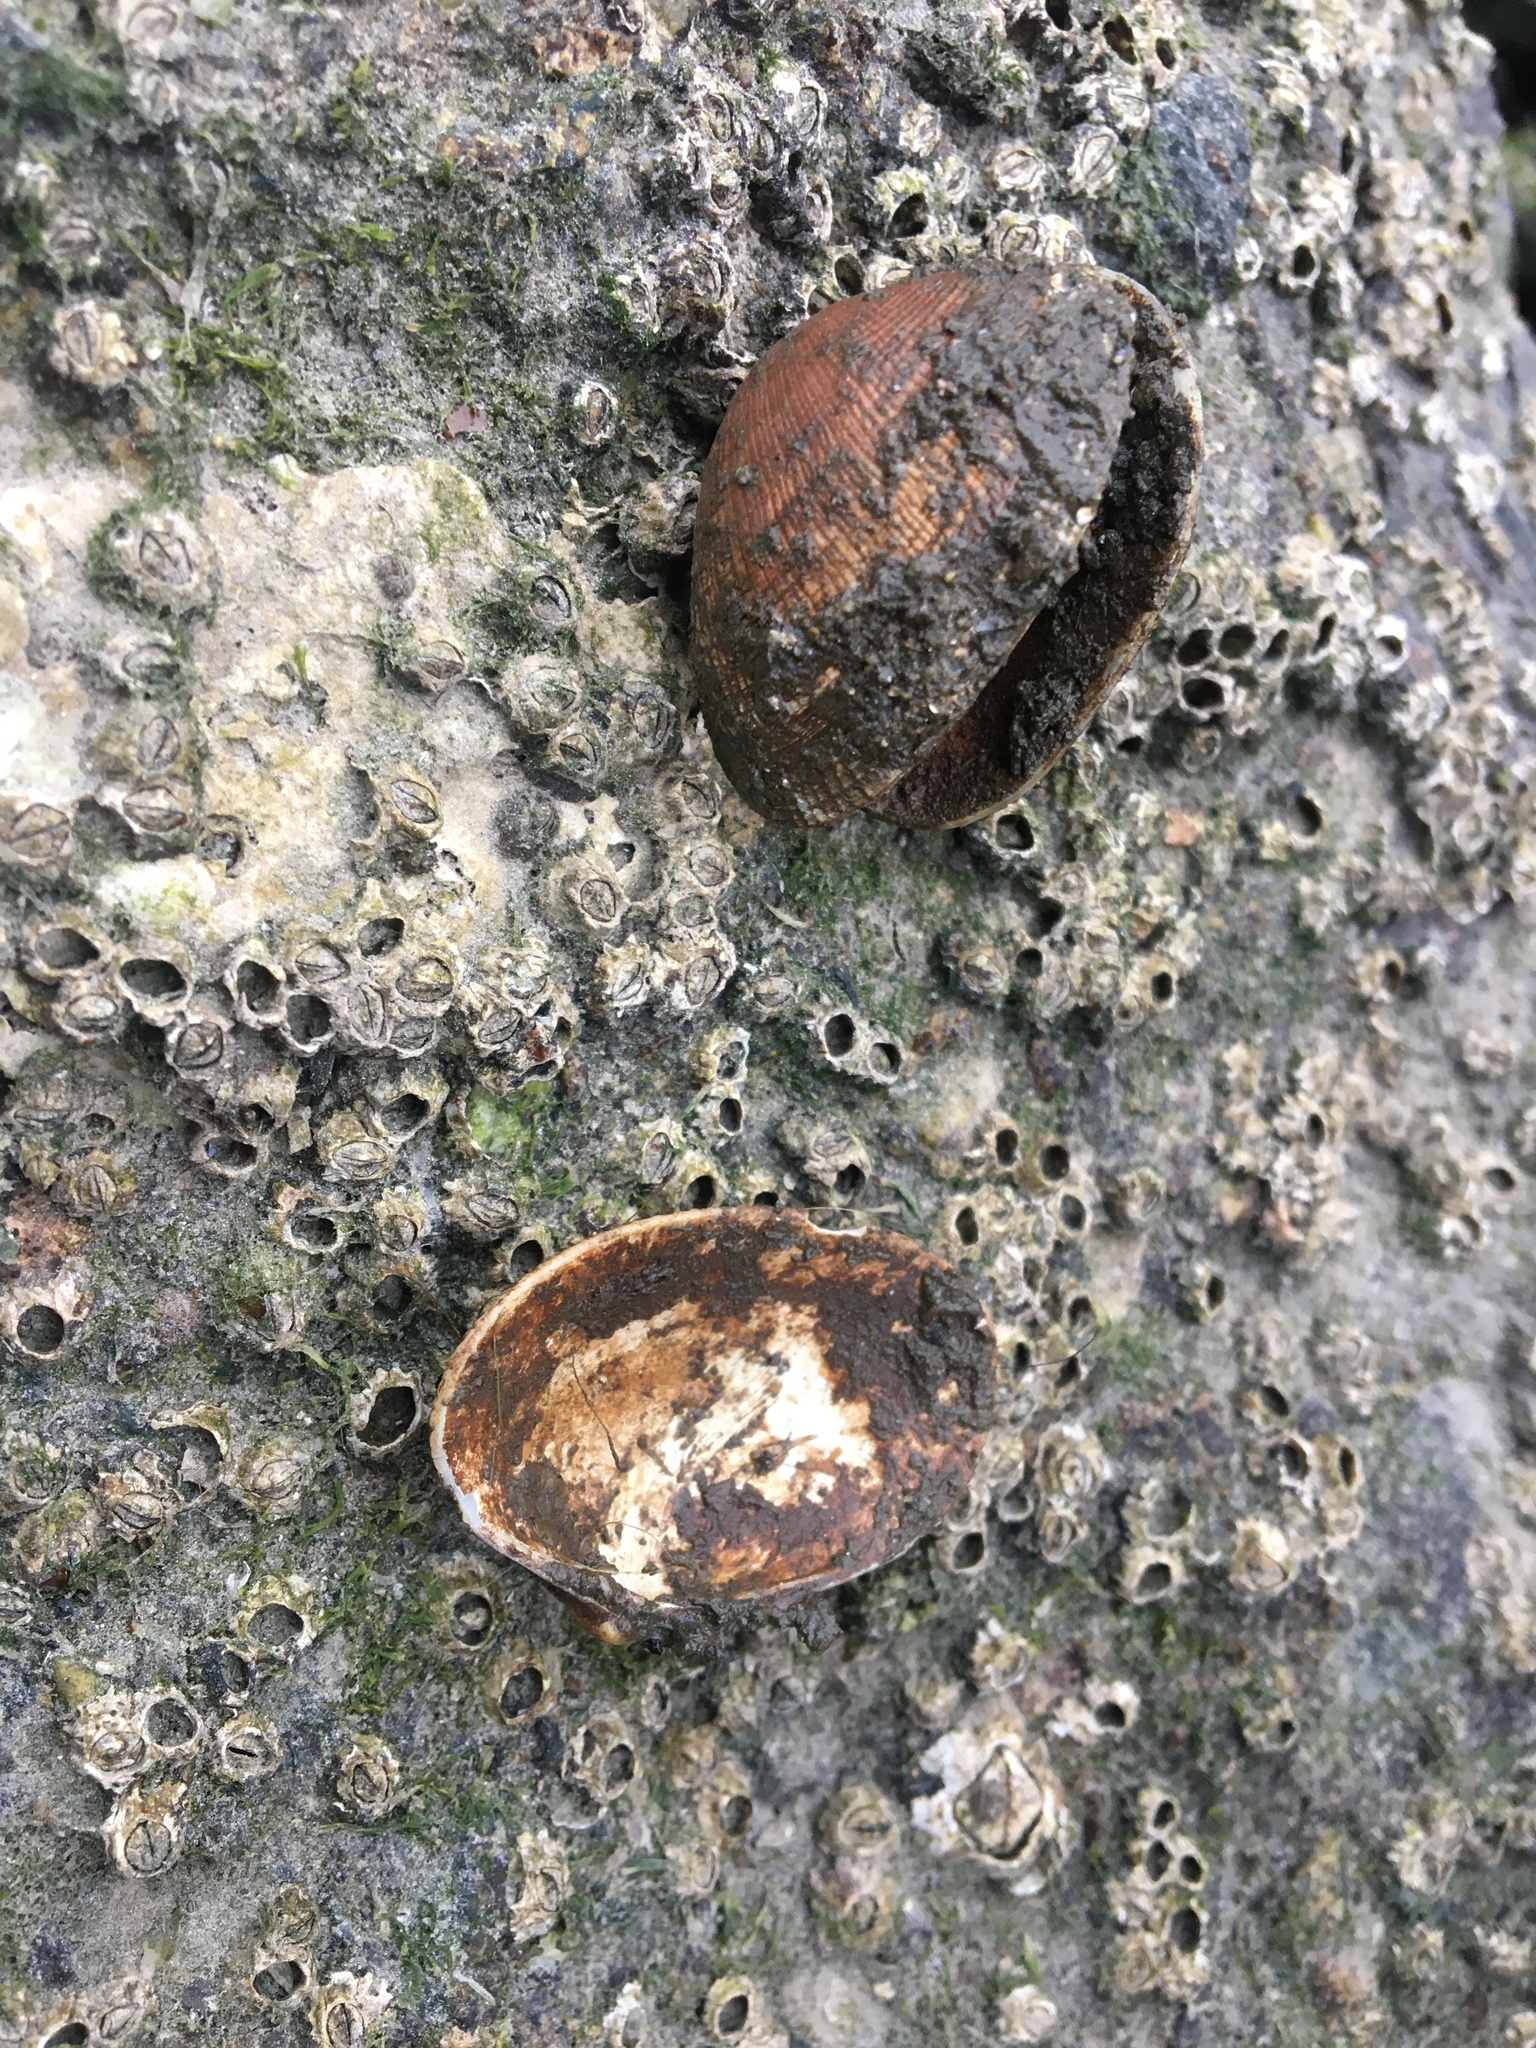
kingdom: Animalia
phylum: Mollusca
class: Bivalvia
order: Venerida
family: Veneridae
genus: Leukoma
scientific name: Leukoma staminea
